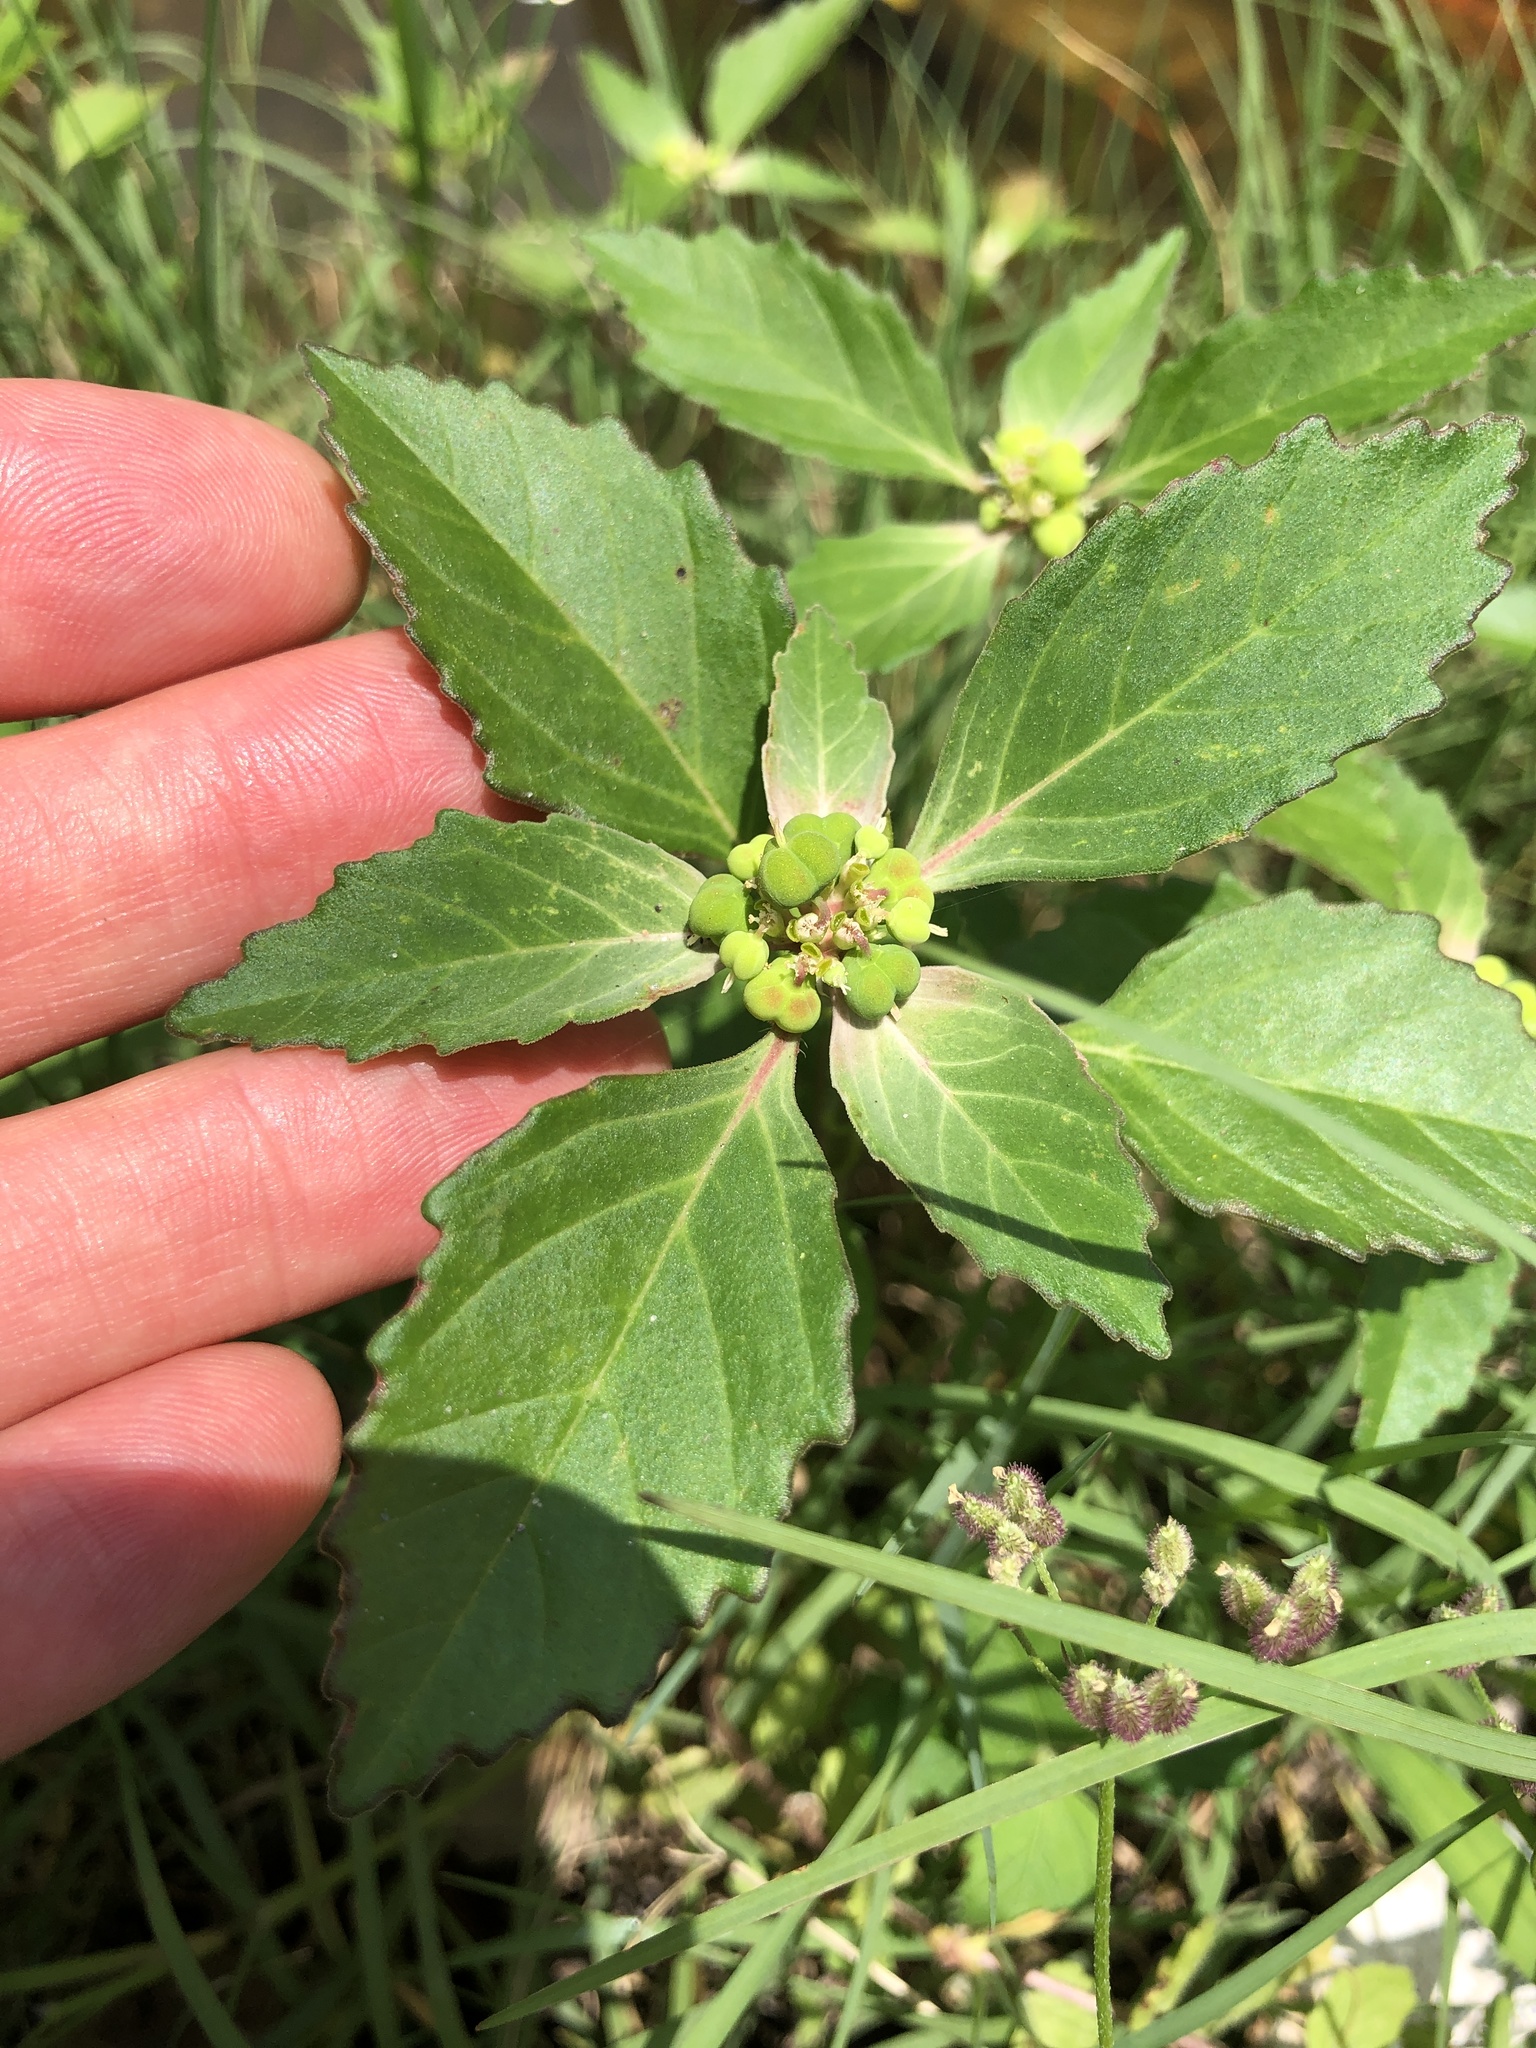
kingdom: Plantae
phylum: Tracheophyta
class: Magnoliopsida
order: Malpighiales
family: Euphorbiaceae
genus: Euphorbia
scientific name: Euphorbia dentata
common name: Dentate spurge
